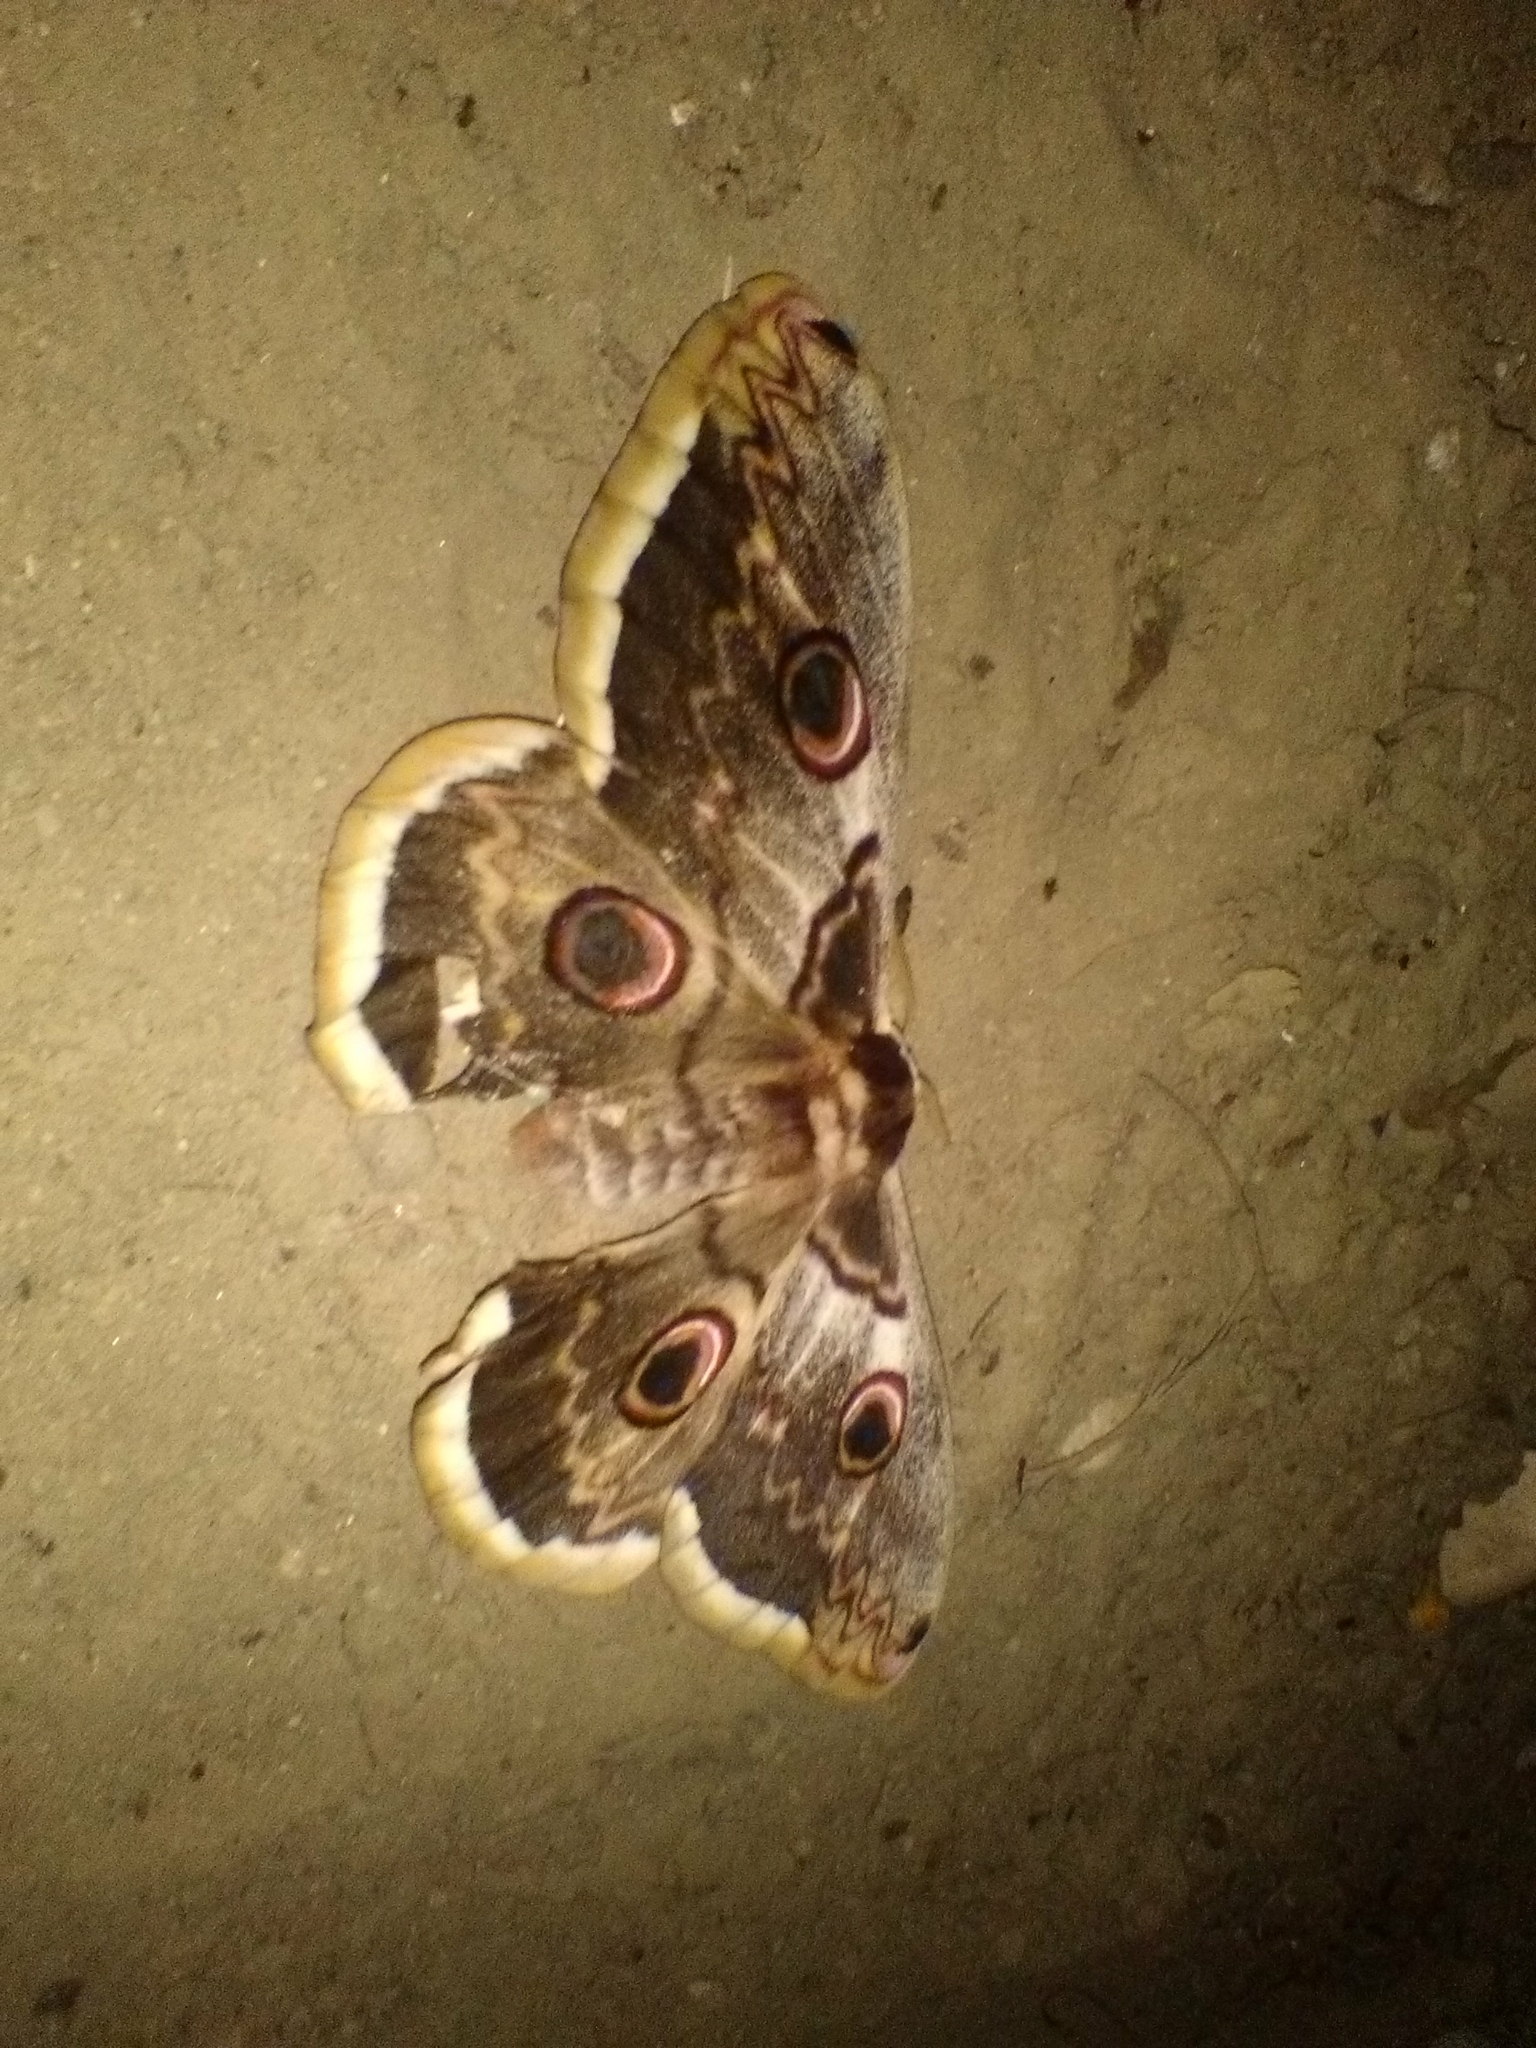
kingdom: Animalia
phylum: Arthropoda
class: Insecta
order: Lepidoptera
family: Saturniidae
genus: Saturnia
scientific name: Saturnia pyri
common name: Great peacock moth
